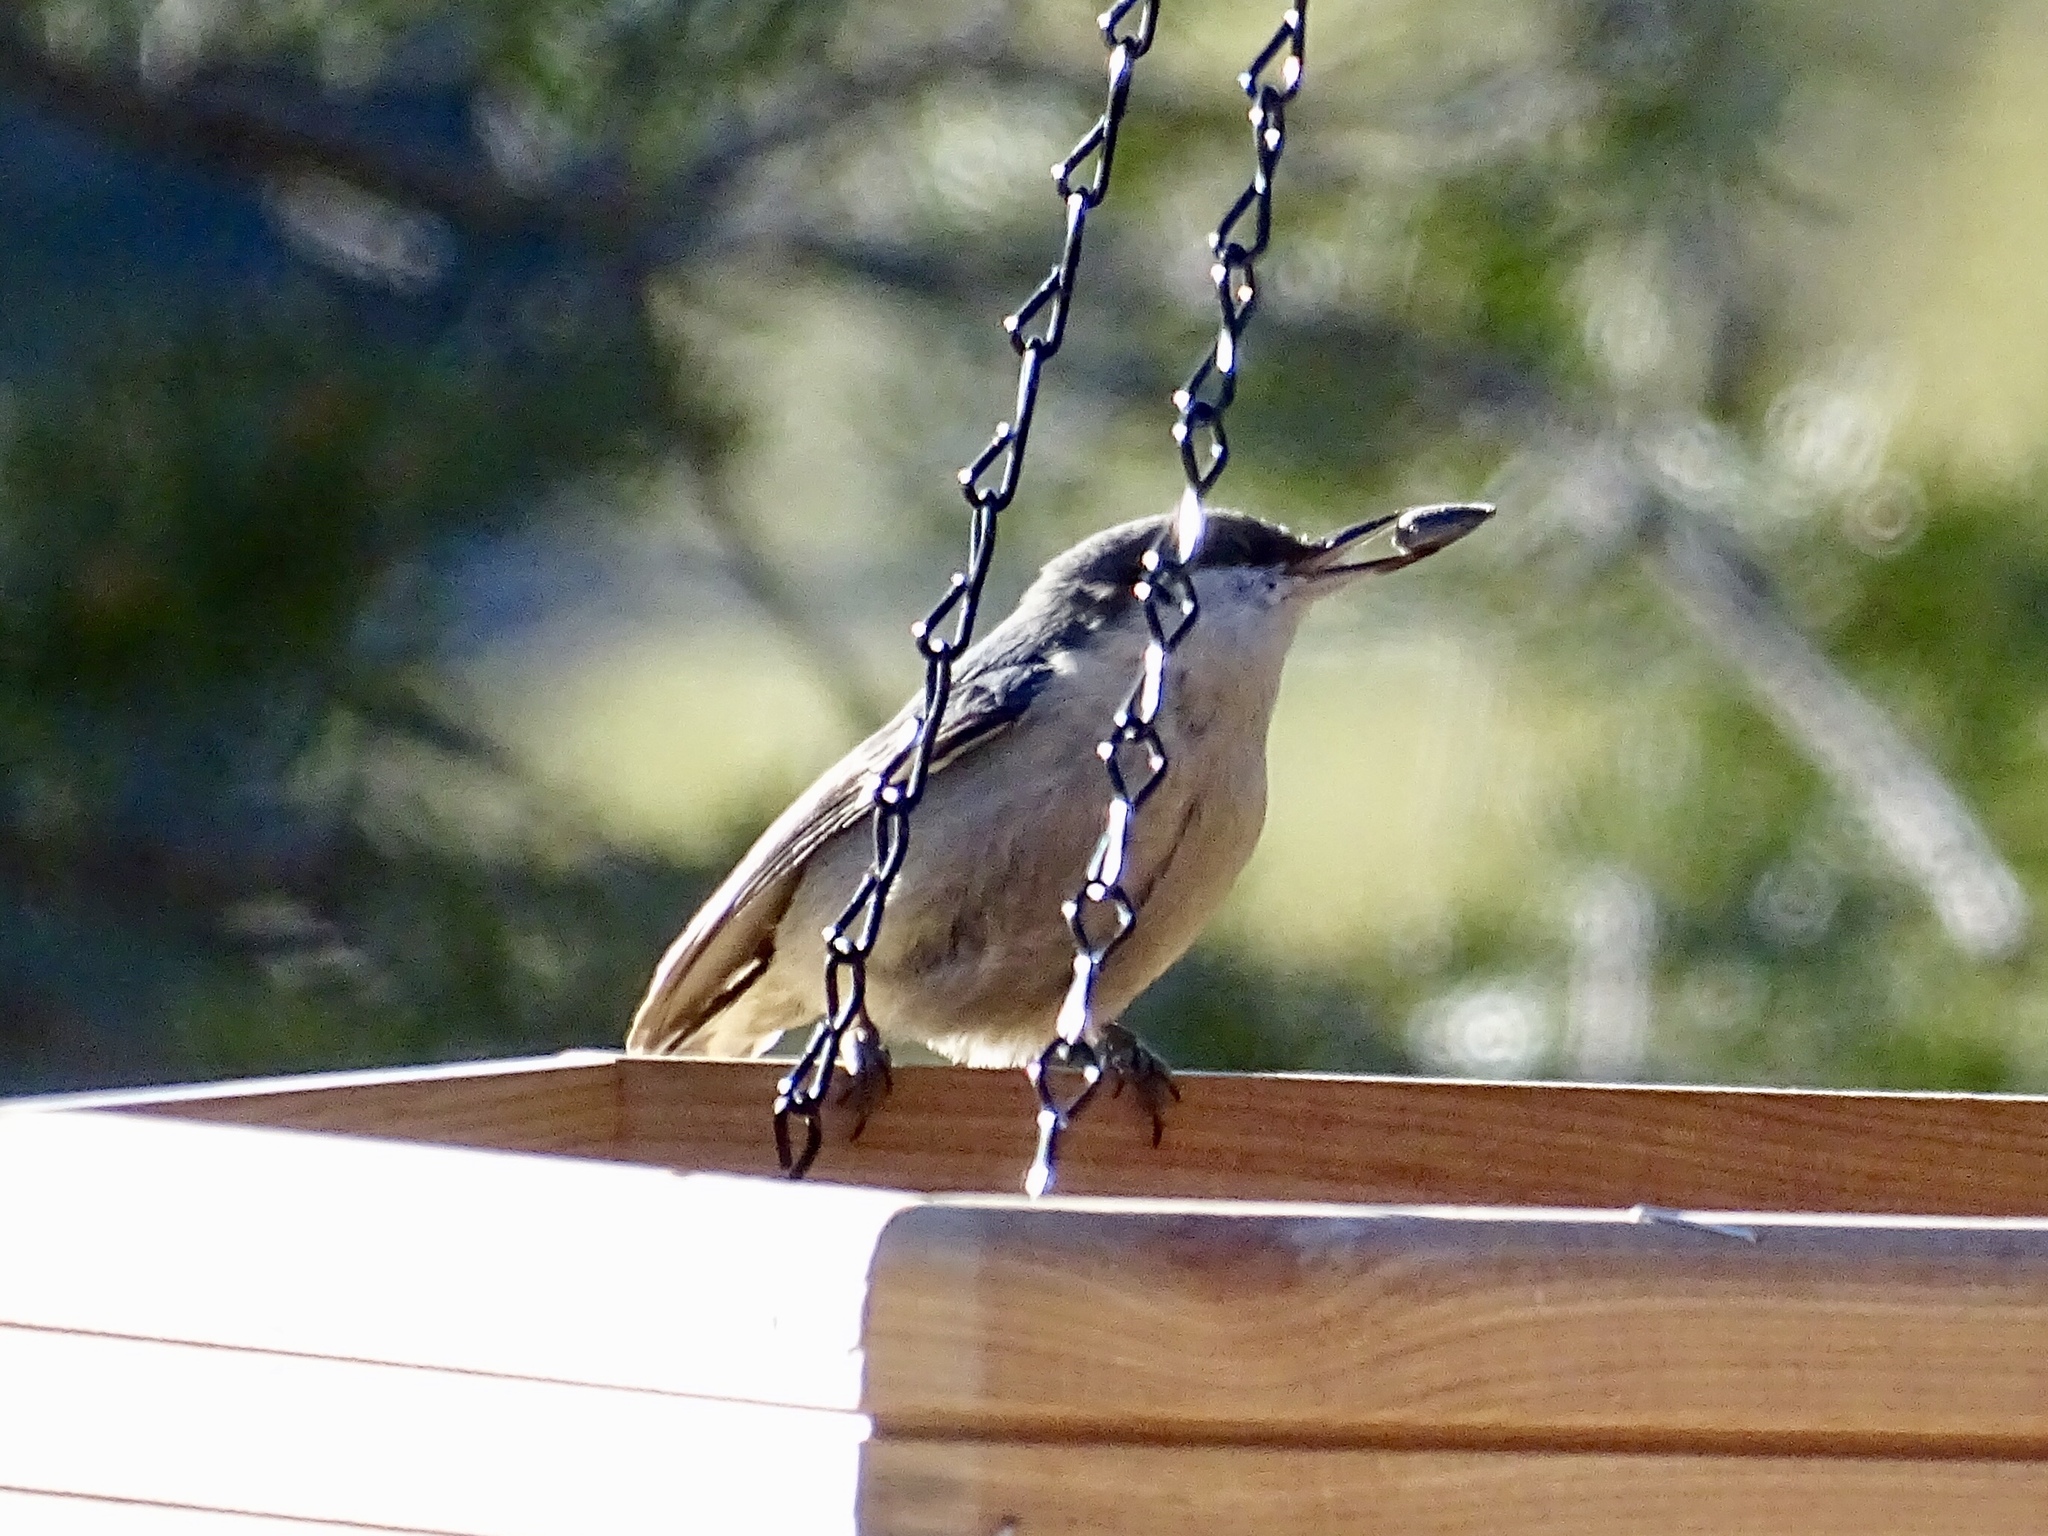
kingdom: Animalia
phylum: Chordata
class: Aves
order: Passeriformes
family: Sittidae
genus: Sitta
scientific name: Sitta pygmaea
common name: Pygmy nuthatch
